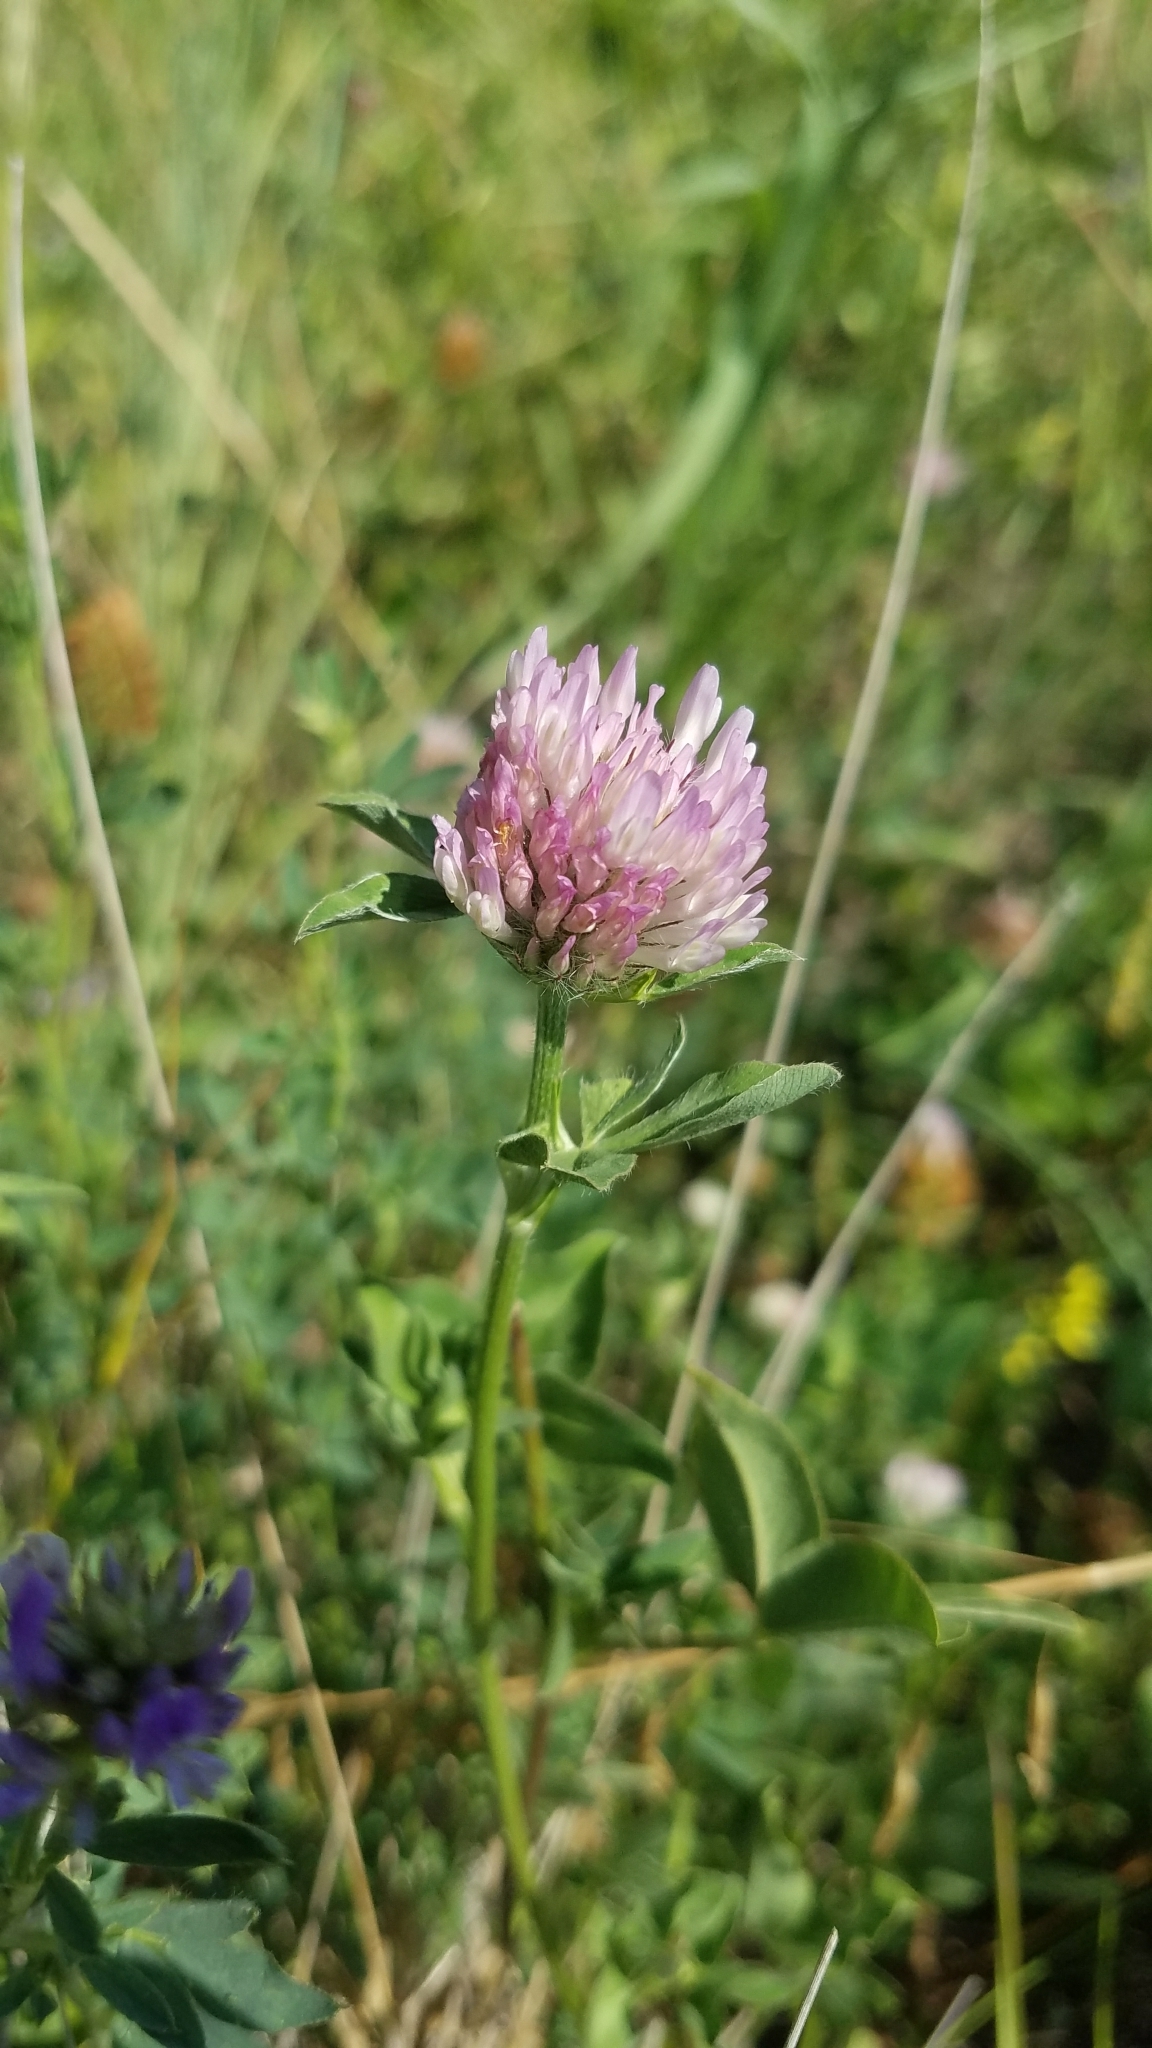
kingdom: Plantae
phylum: Tracheophyta
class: Magnoliopsida
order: Fabales
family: Fabaceae
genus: Trifolium
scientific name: Trifolium pratense
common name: Red clover
